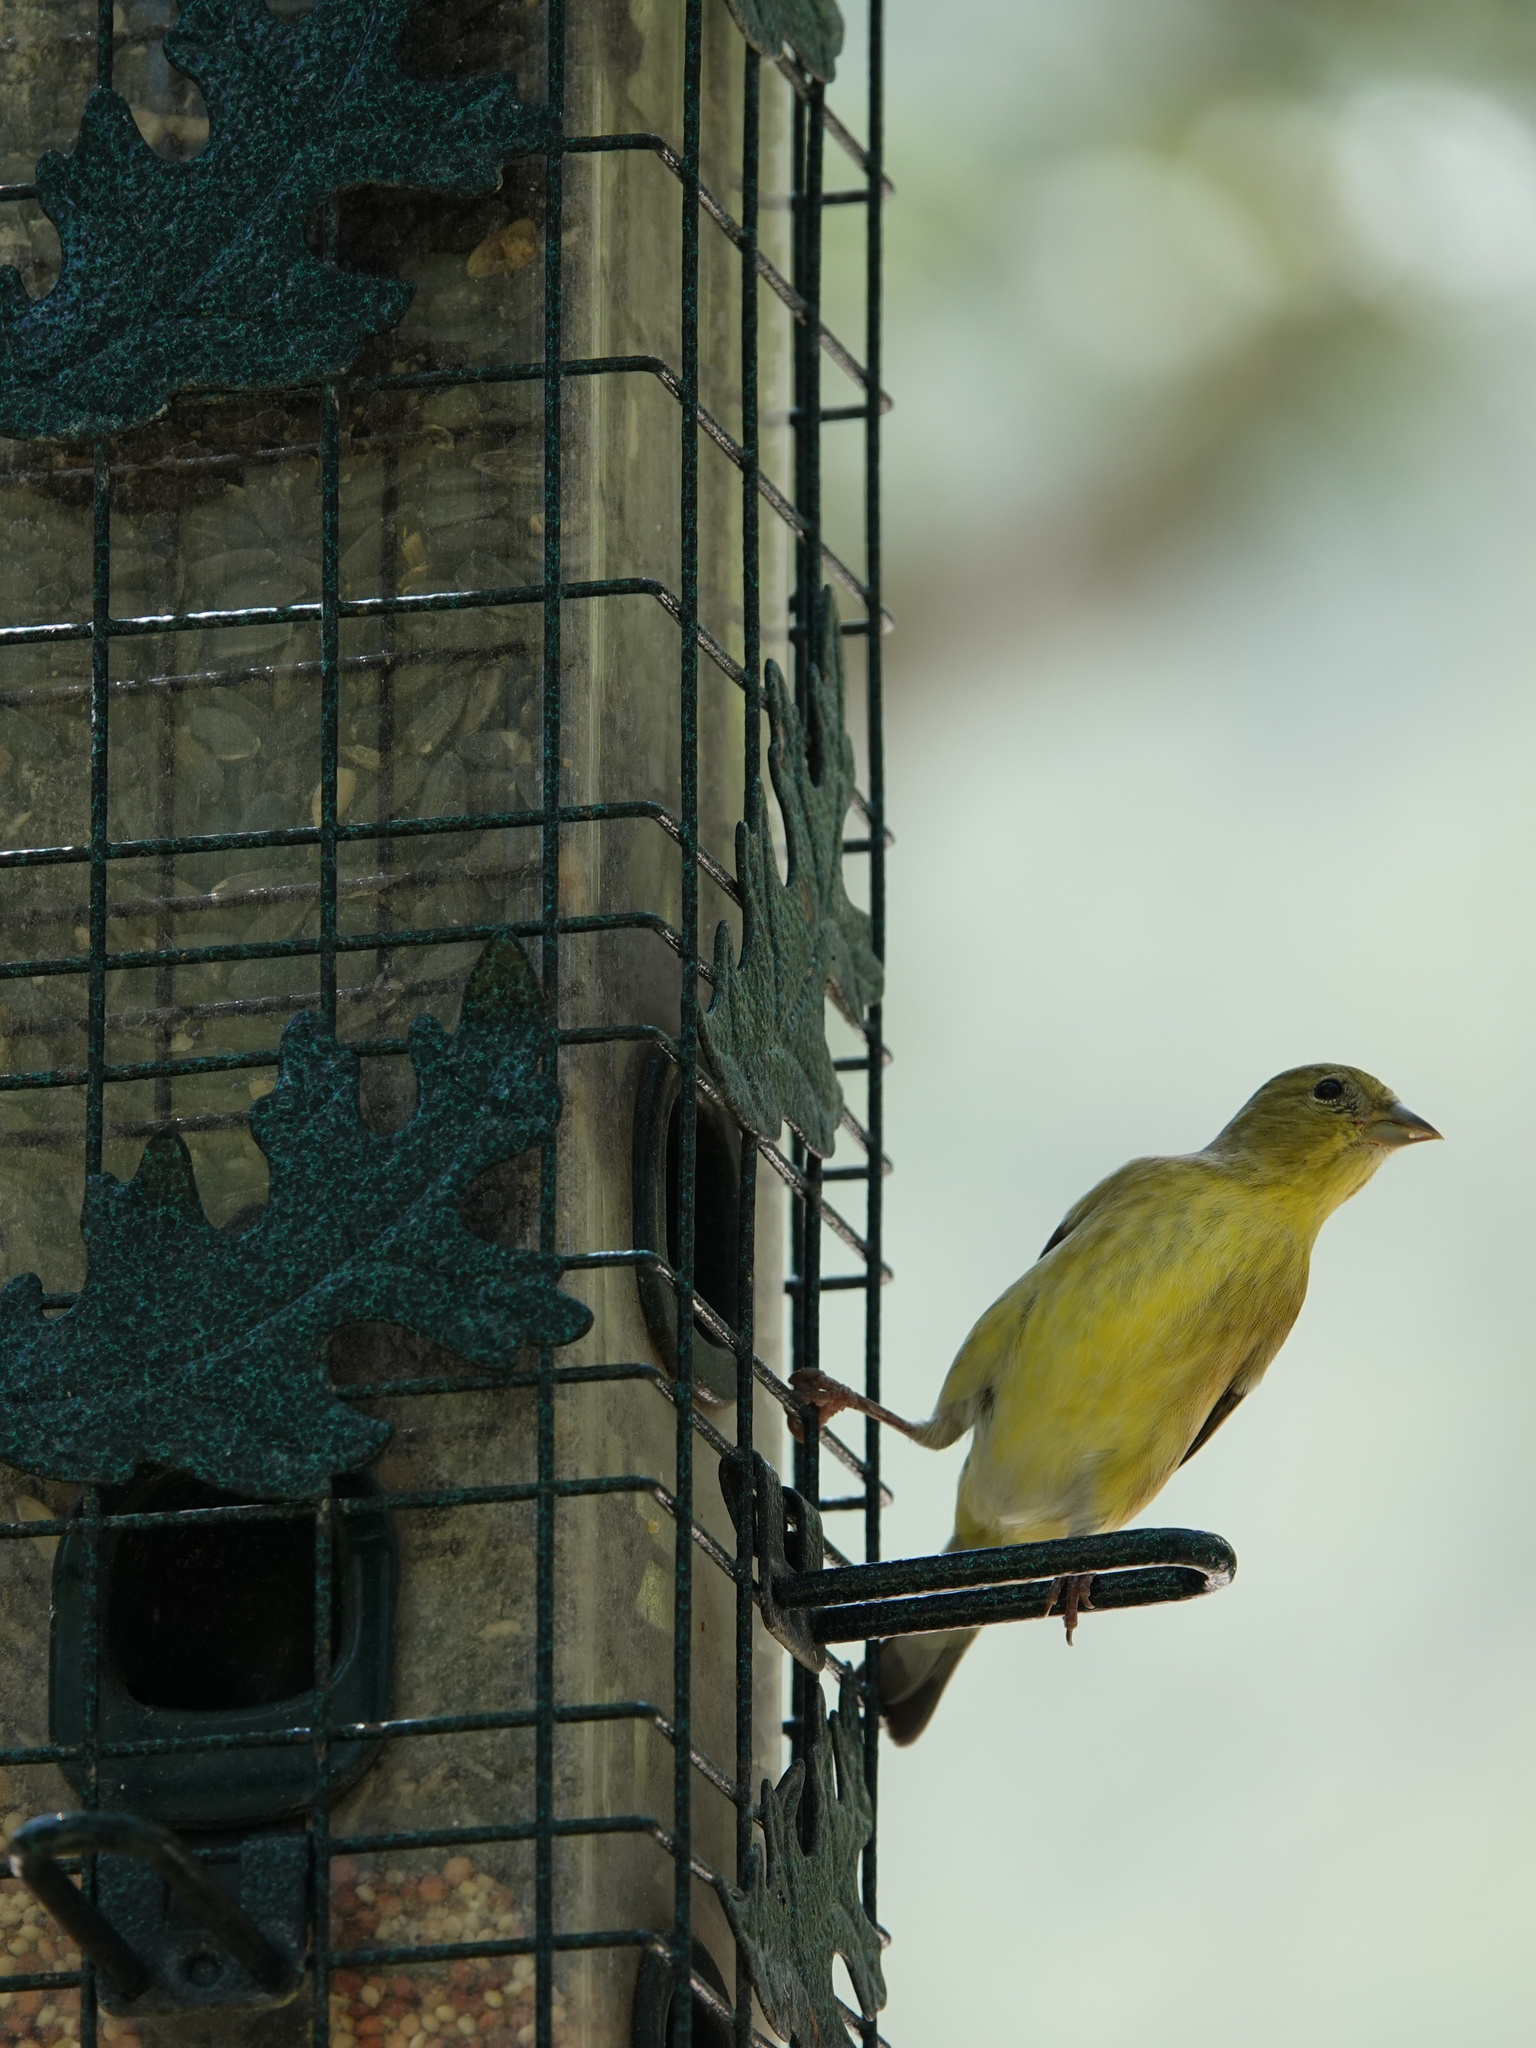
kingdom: Animalia
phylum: Chordata
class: Aves
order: Passeriformes
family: Fringillidae
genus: Spinus
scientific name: Spinus psaltria
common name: Lesser goldfinch
